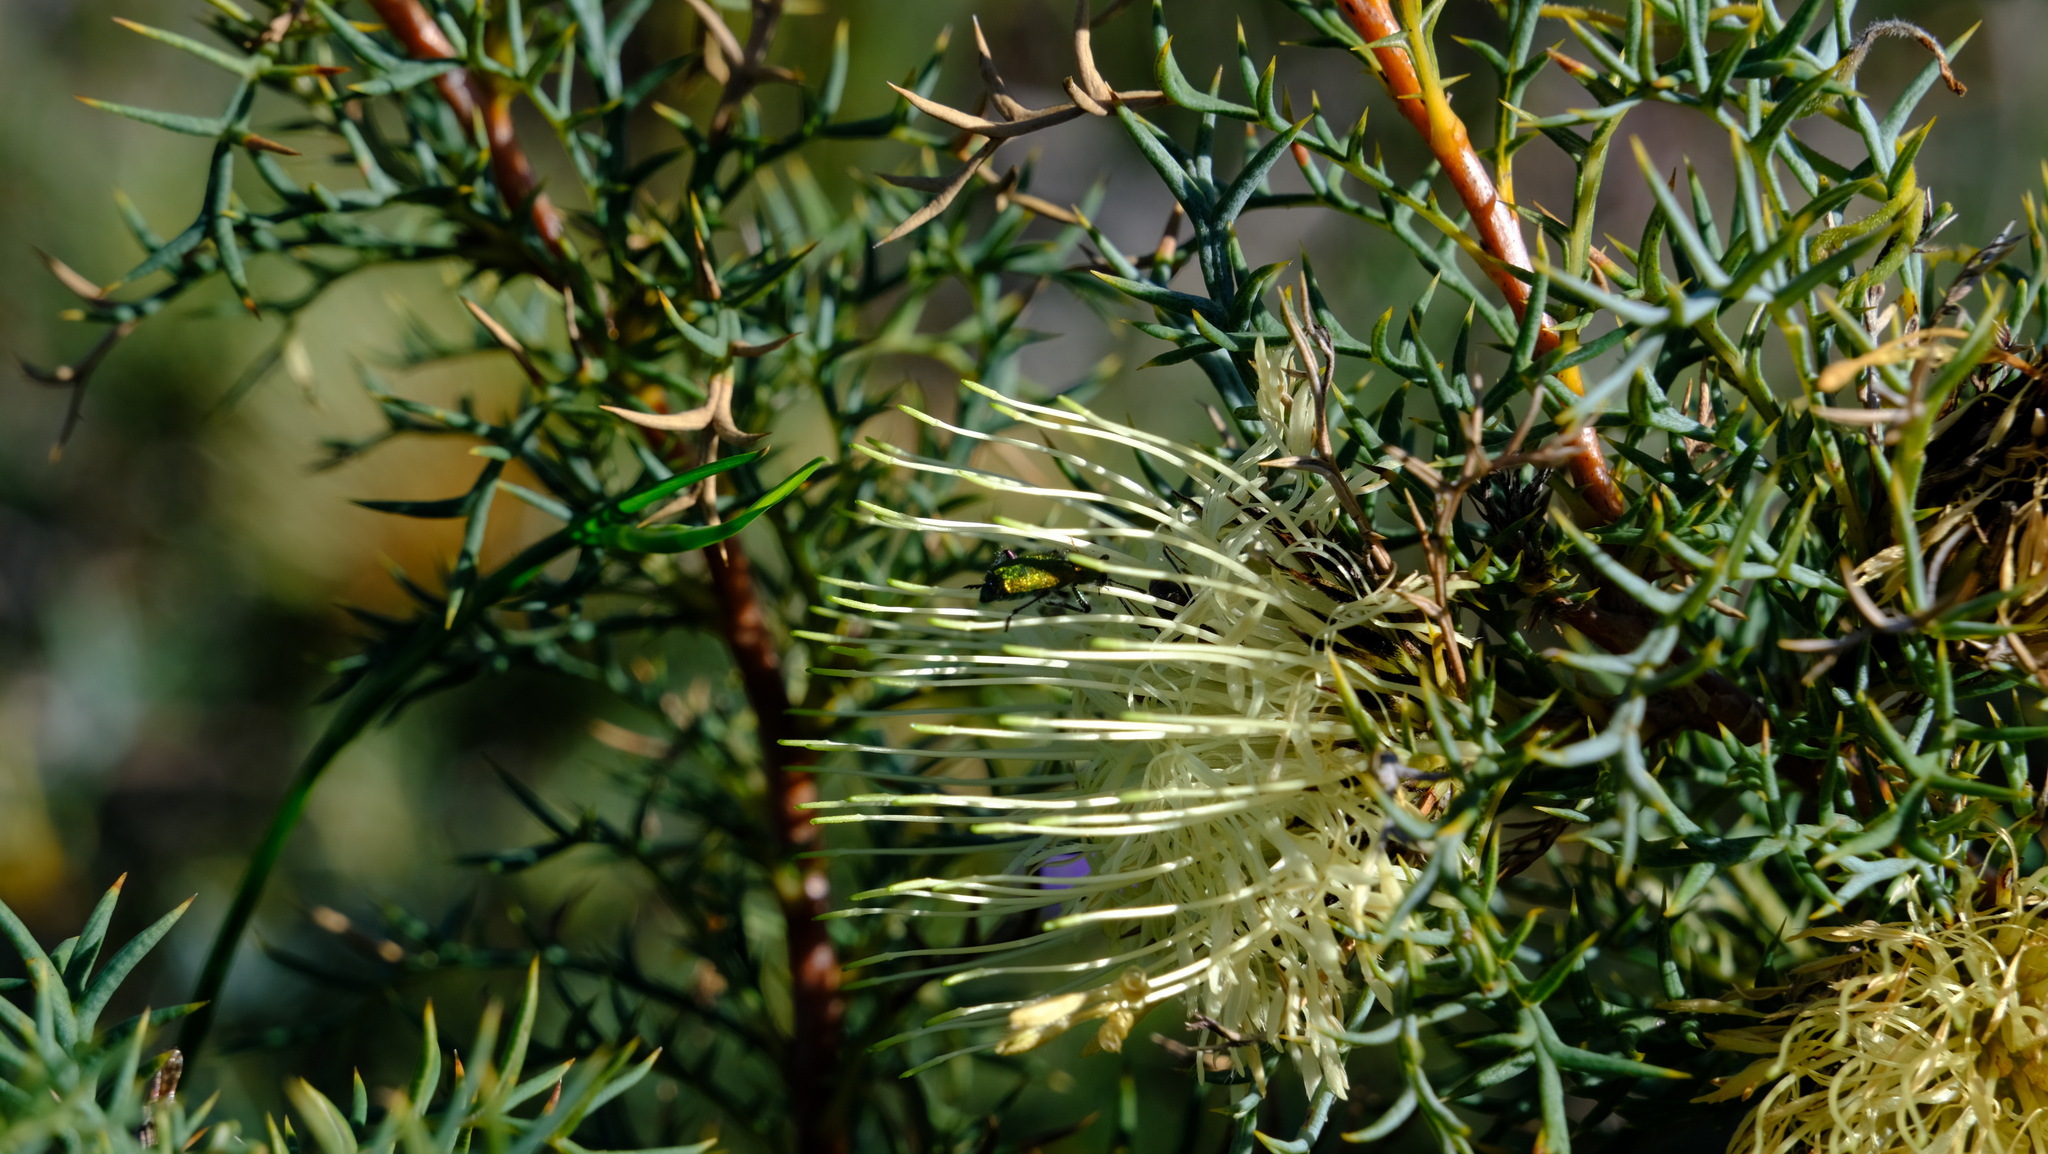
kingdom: Plantae
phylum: Tracheophyta
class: Magnoliopsida
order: Proteales
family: Proteaceae
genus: Banksia
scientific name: Banksia fraseri
